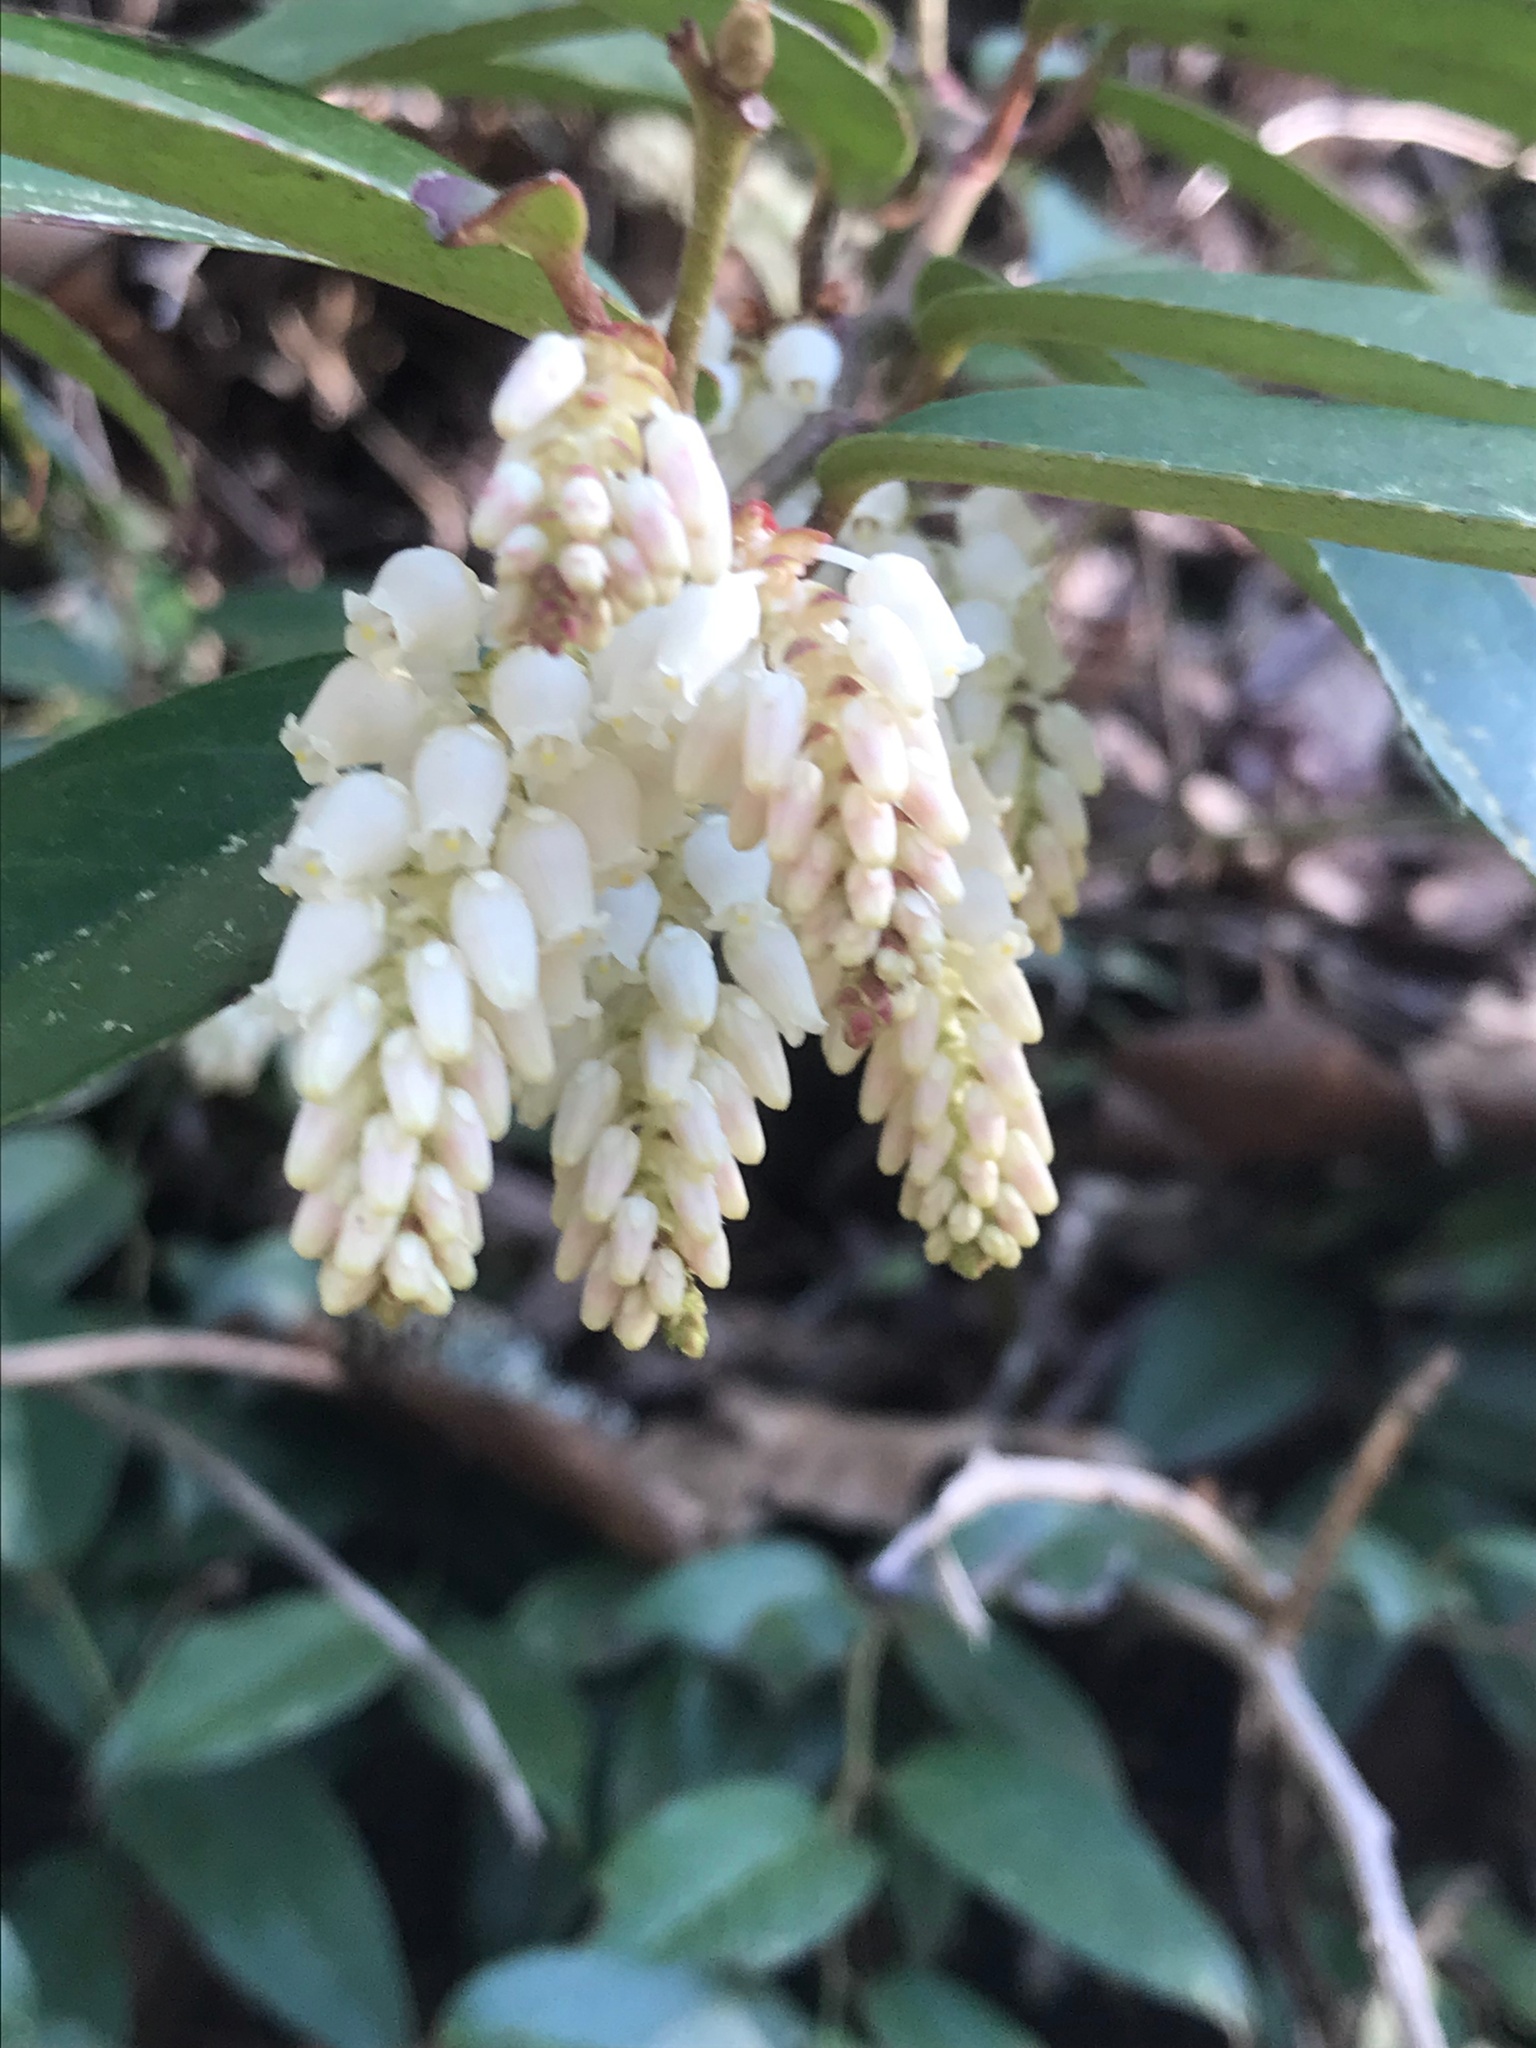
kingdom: Plantae
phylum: Tracheophyta
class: Magnoliopsida
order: Ericales
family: Ericaceae
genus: Leucothoe
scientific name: Leucothoe fontanesiana
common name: Fetterbush
